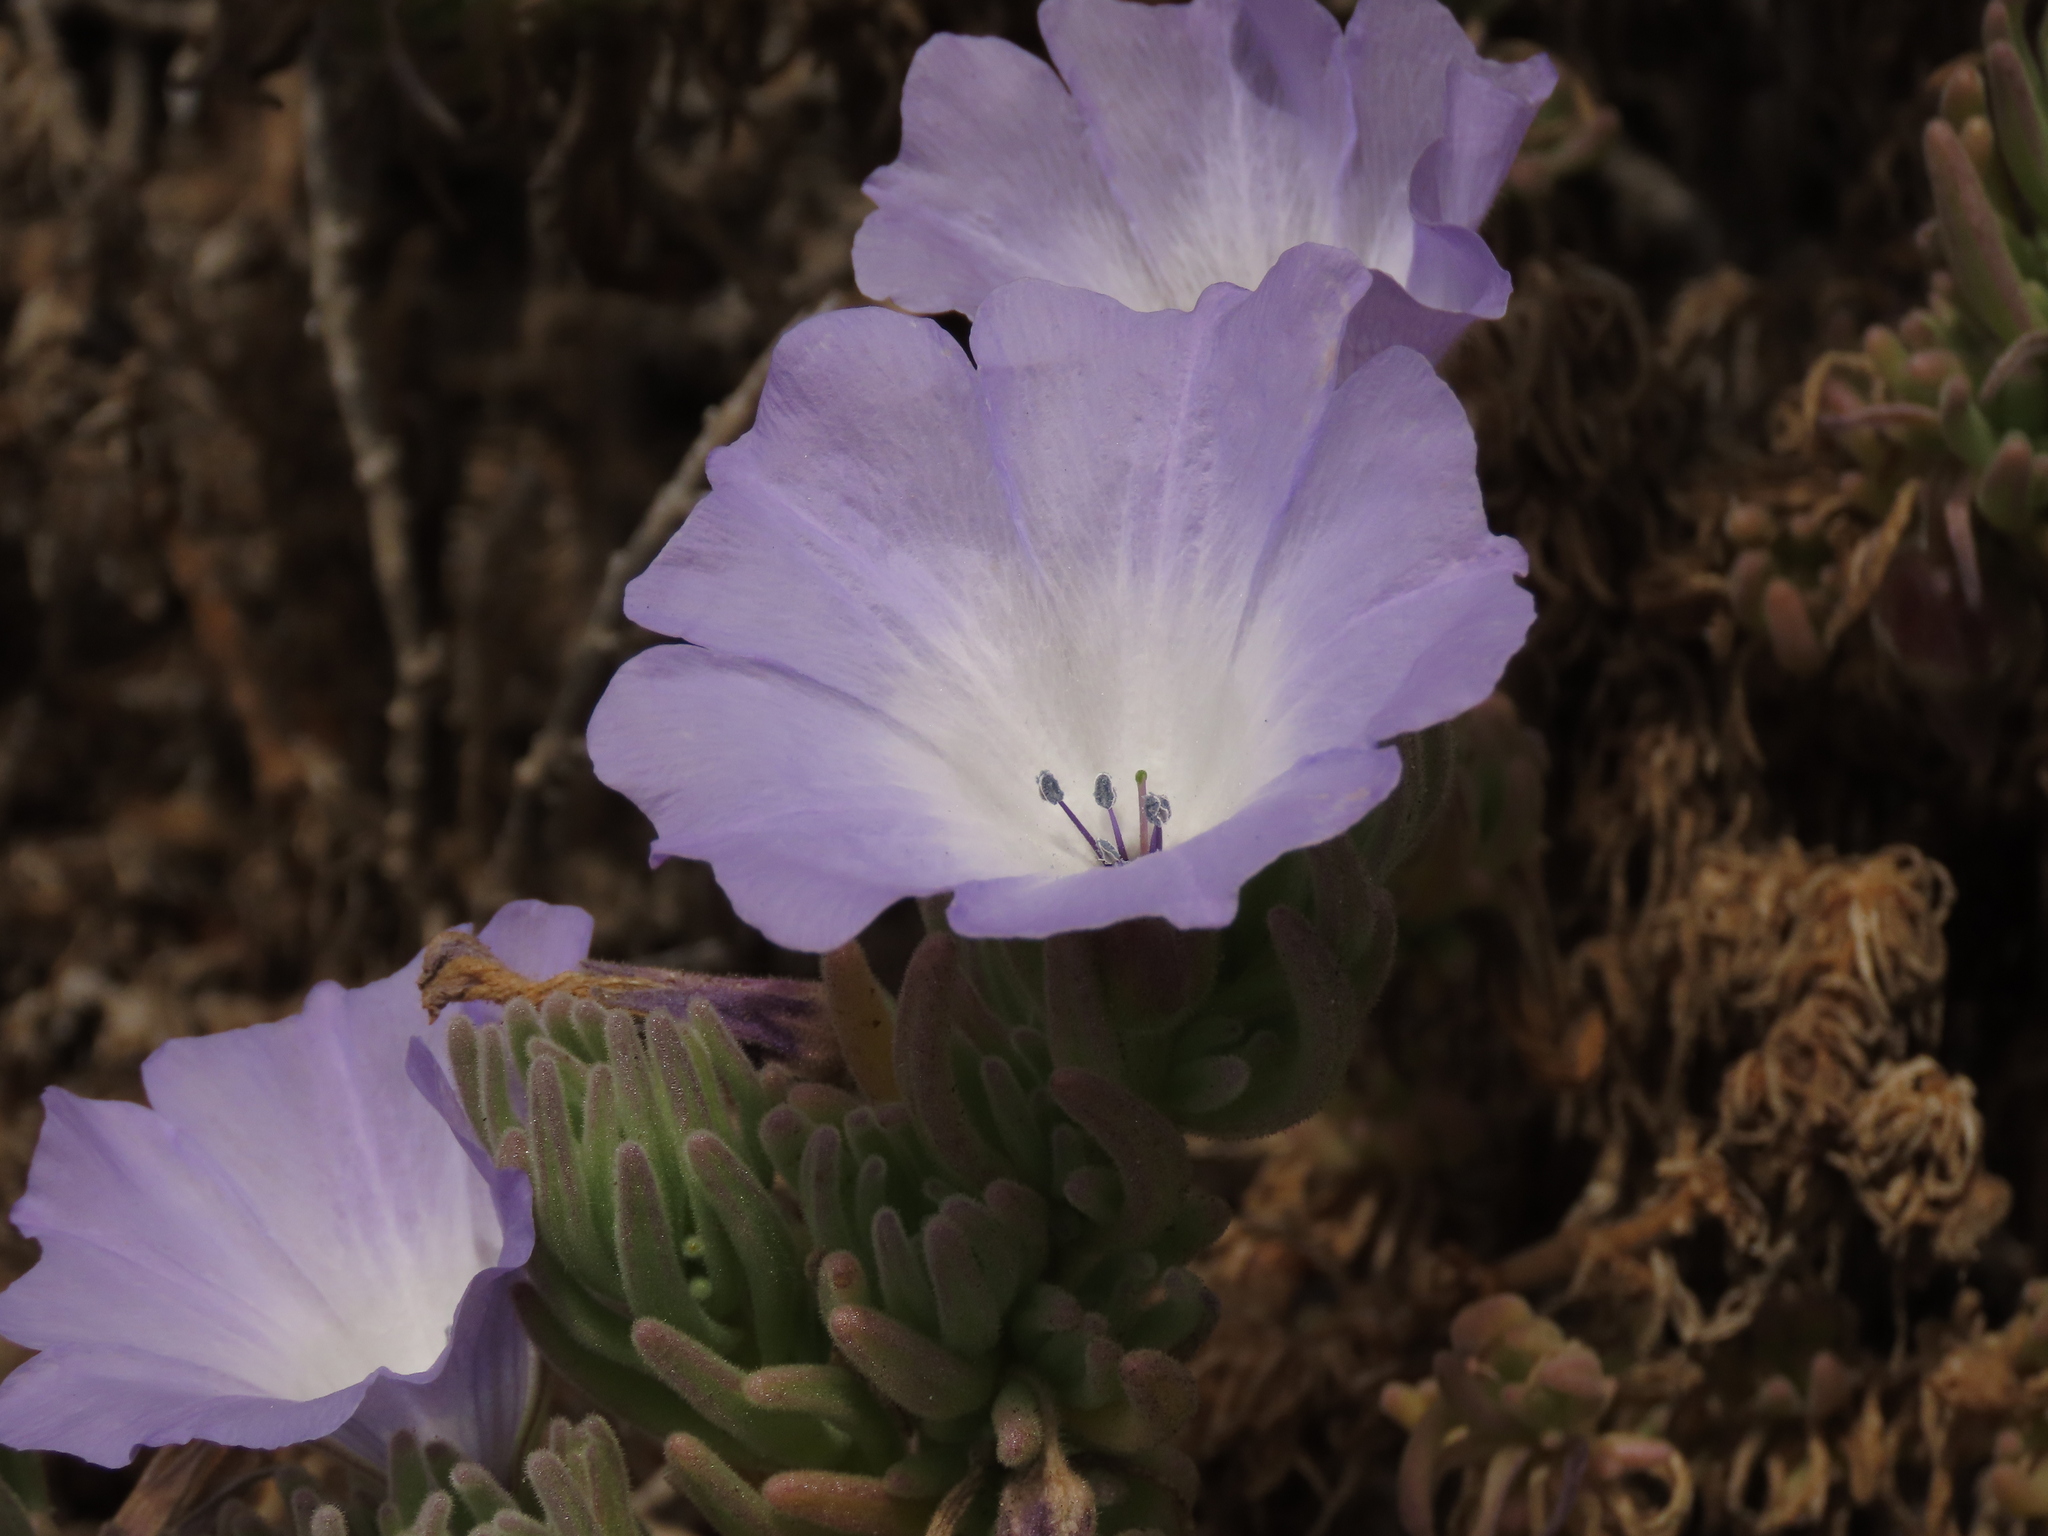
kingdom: Plantae
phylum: Tracheophyta
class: Magnoliopsida
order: Solanales
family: Solanaceae
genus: Nolana
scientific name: Nolana mollis
